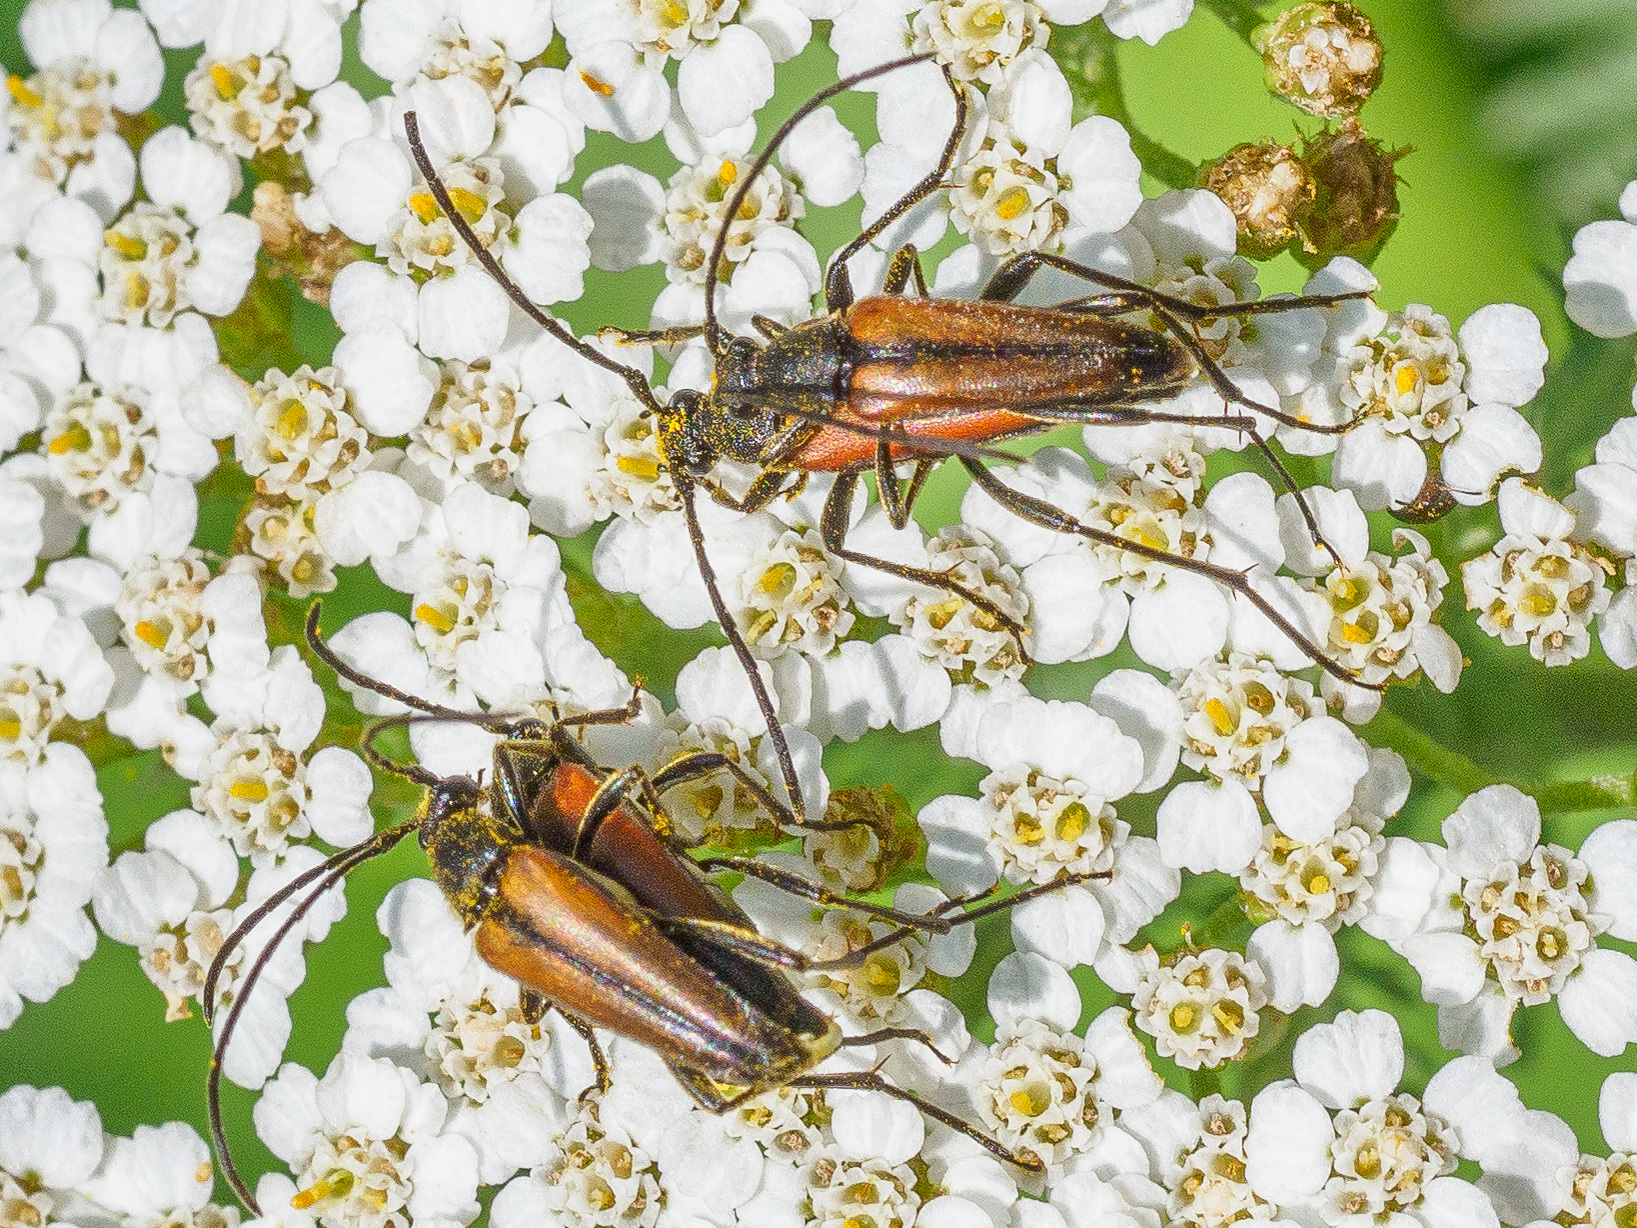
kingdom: Animalia
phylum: Arthropoda
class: Insecta
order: Coleoptera
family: Cerambycidae
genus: Stenurella
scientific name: Stenurella melanura
